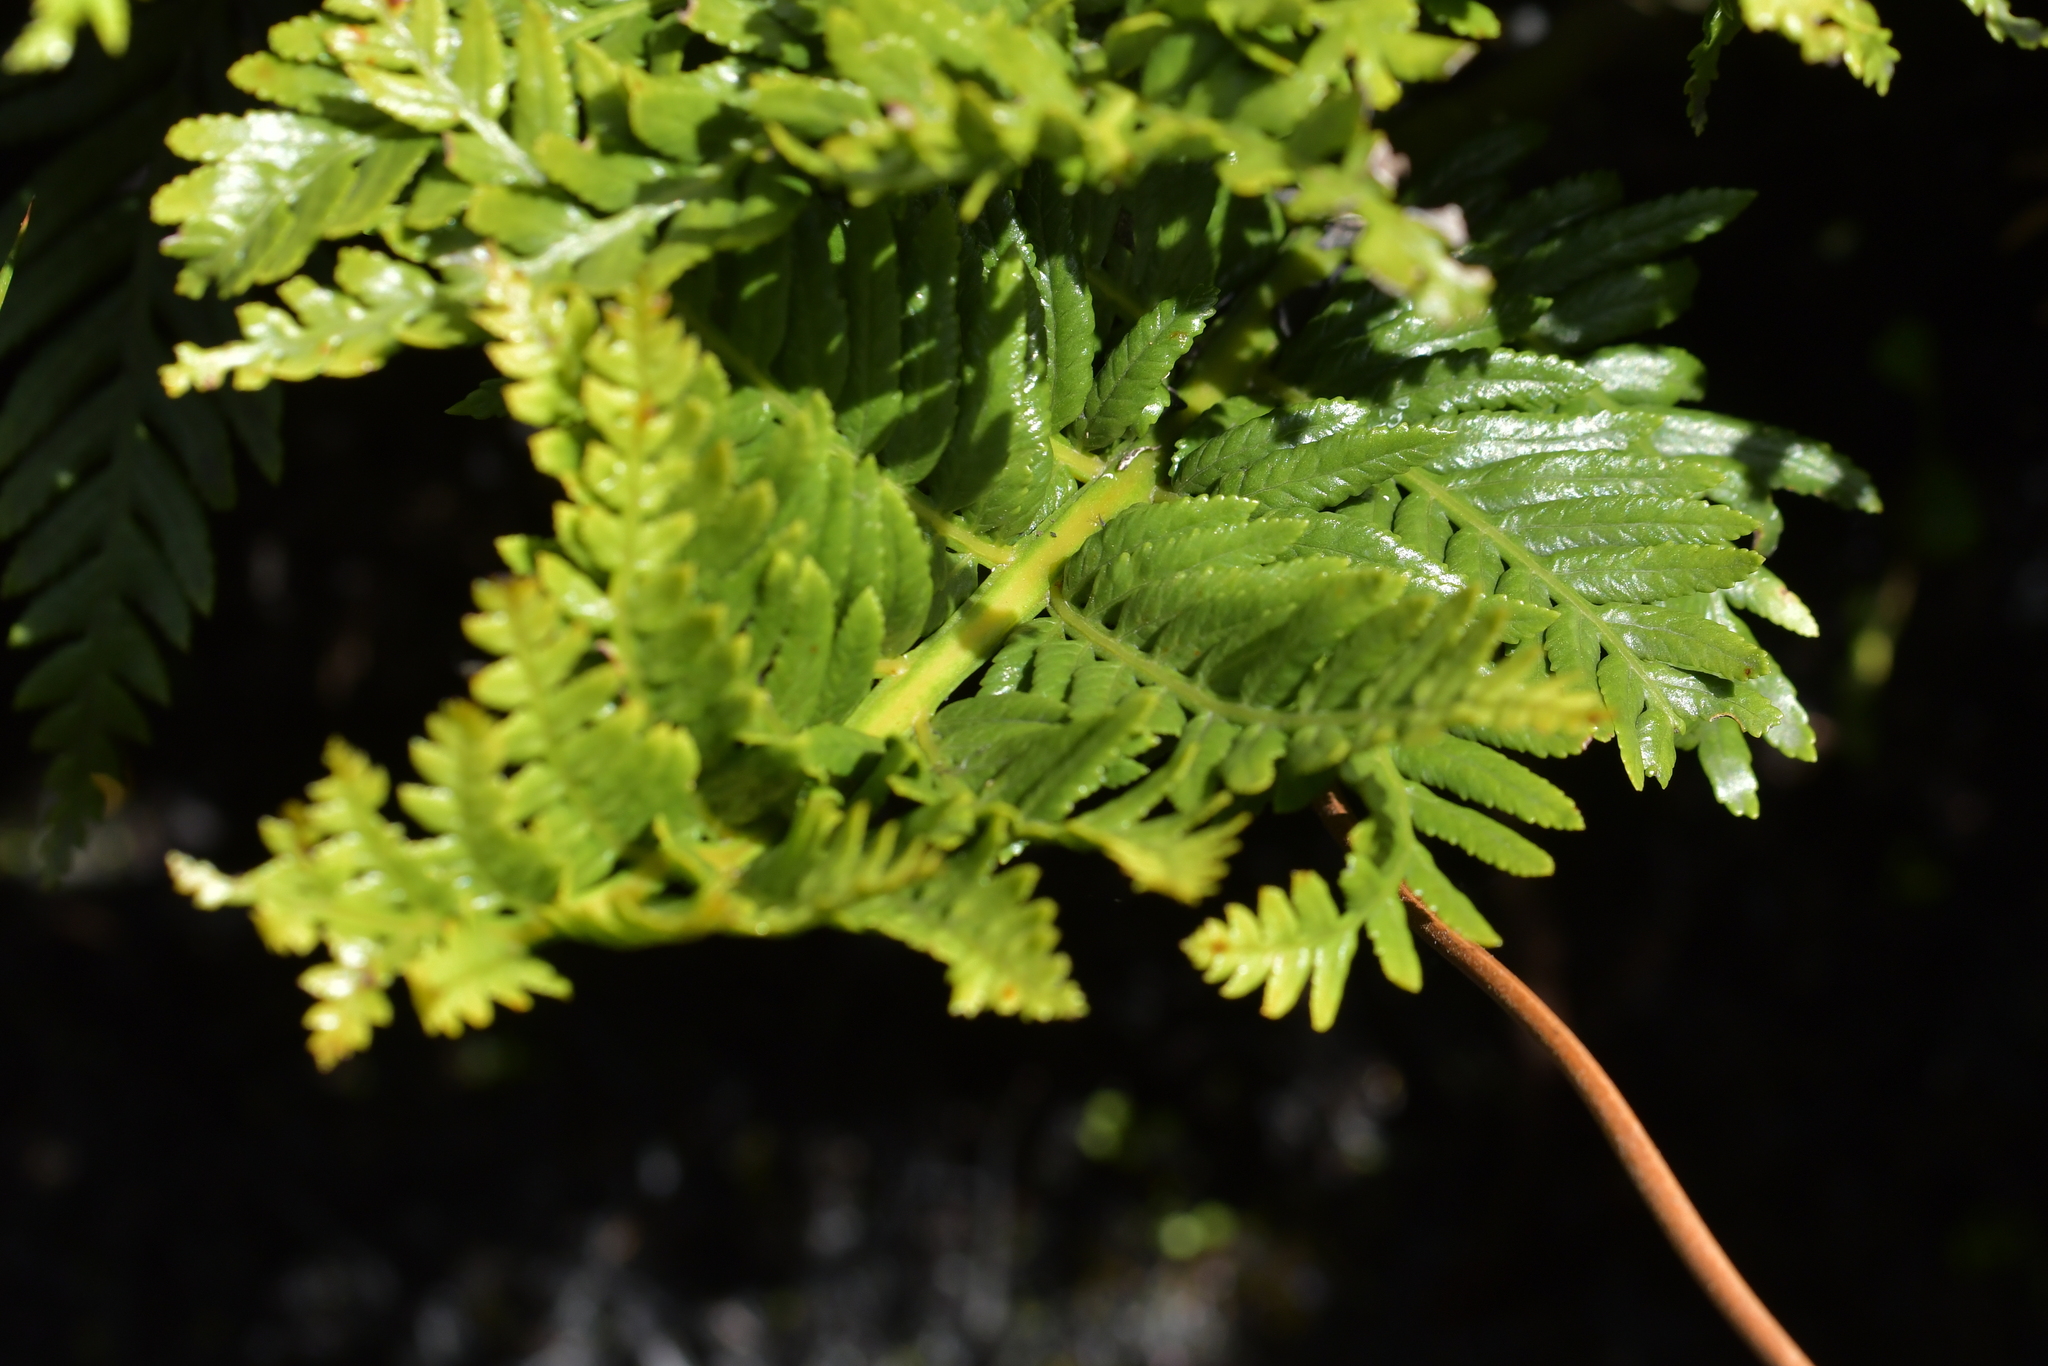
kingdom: Plantae
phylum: Tracheophyta
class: Polypodiopsida
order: Osmundales
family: Osmundaceae
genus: Todea
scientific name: Todea barbara
